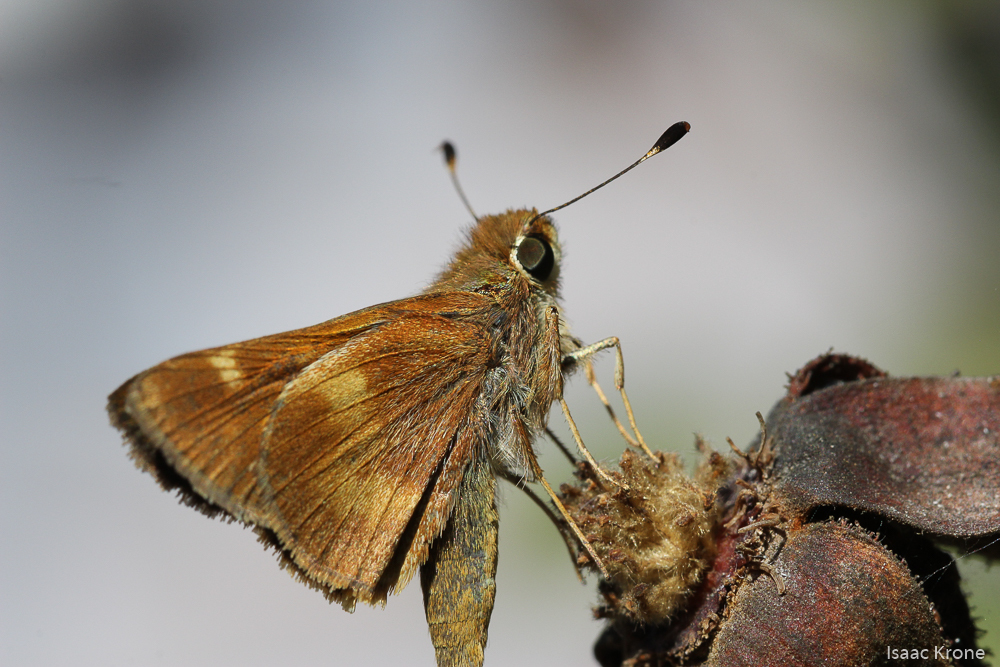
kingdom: Animalia
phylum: Arthropoda
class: Insecta
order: Lepidoptera
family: Hesperiidae
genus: Lon
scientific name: Lon melane
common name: Umber skipper
